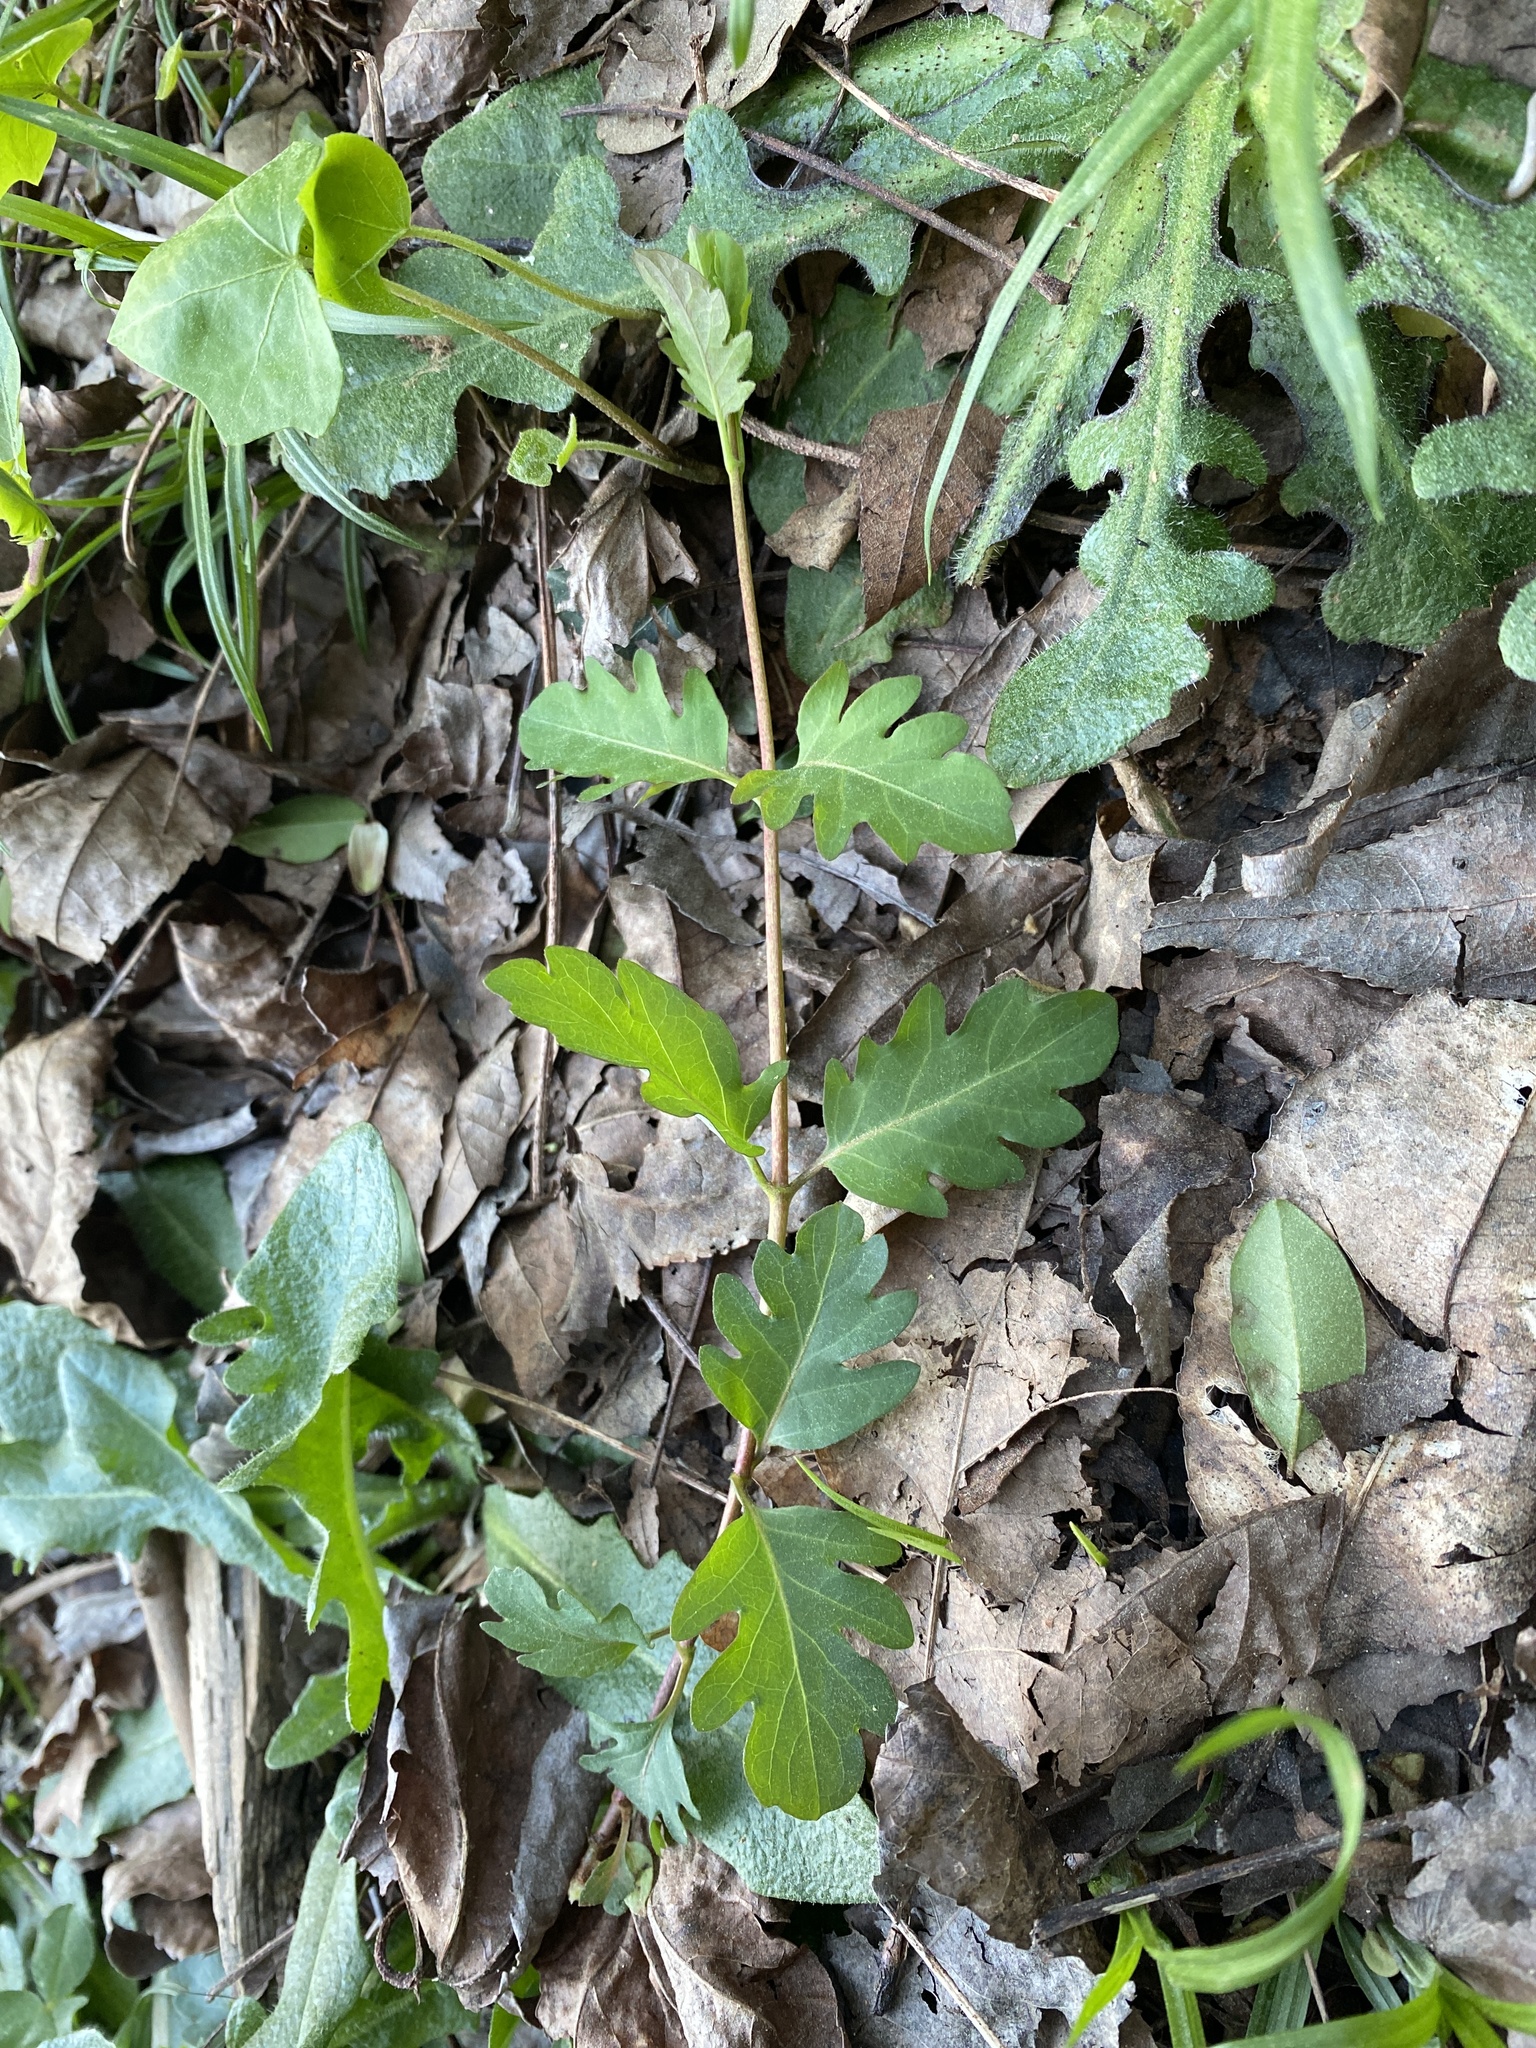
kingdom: Plantae
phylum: Tracheophyta
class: Magnoliopsida
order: Dipsacales
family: Caprifoliaceae
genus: Lonicera
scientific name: Lonicera japonica
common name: Japanese honeysuckle
